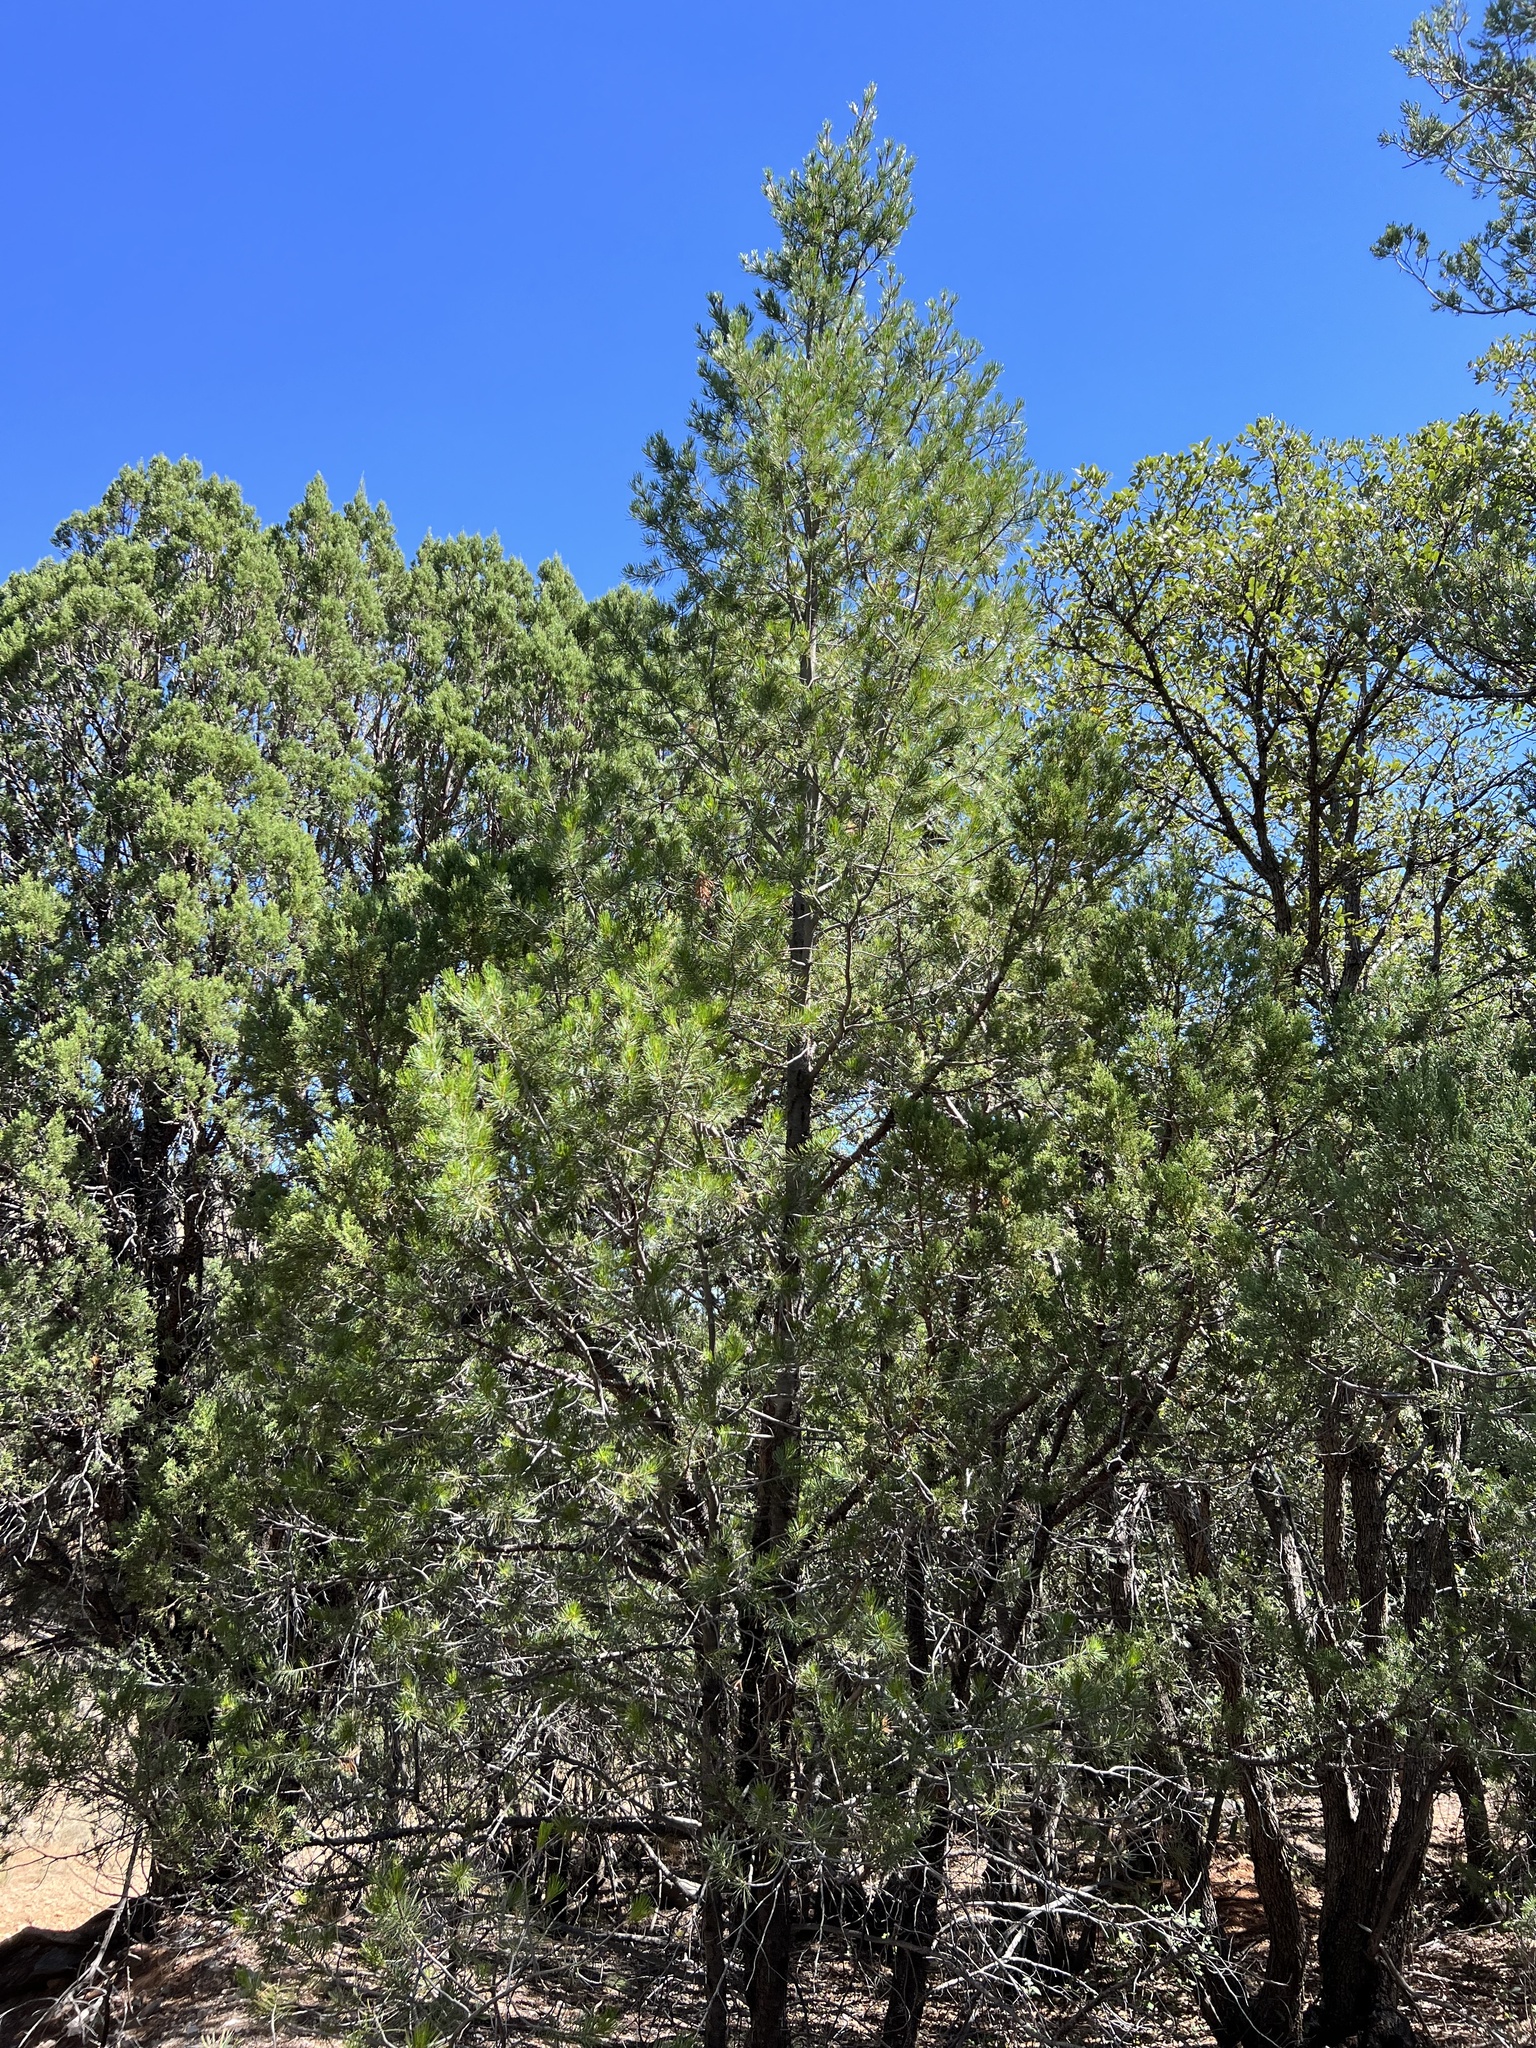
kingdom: Plantae
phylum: Tracheophyta
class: Pinopsida
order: Pinales
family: Pinaceae
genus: Pinus
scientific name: Pinus cembroides
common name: Mexican nut pine
